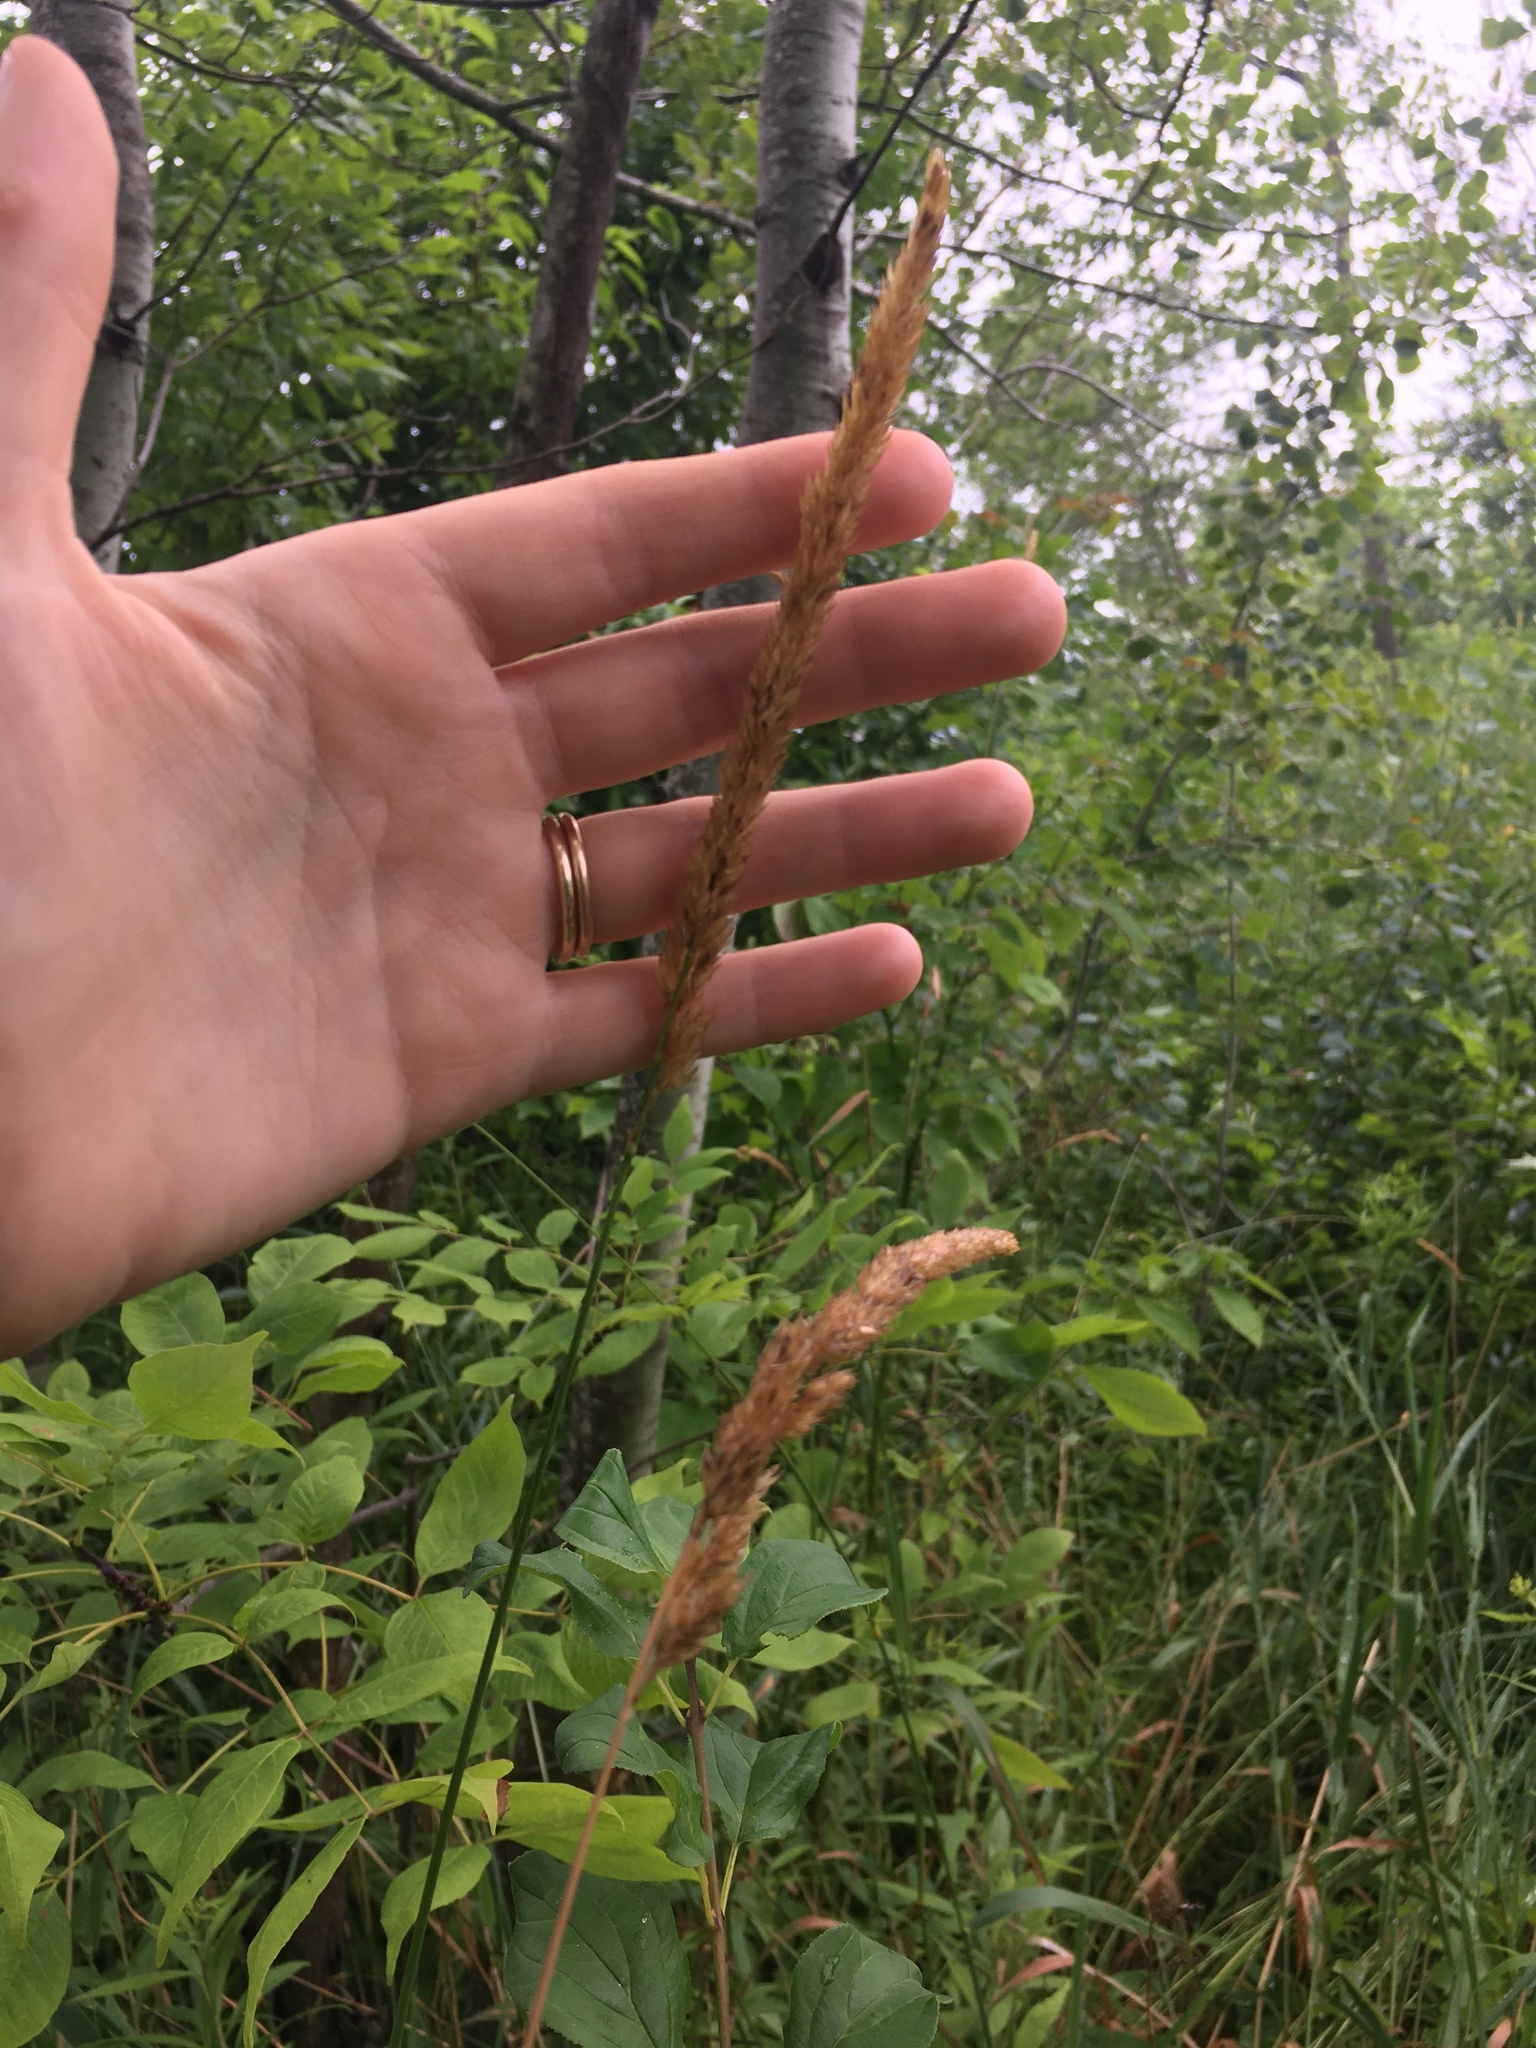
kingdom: Plantae
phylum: Tracheophyta
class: Liliopsida
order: Poales
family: Poaceae
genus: Phalaris
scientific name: Phalaris arundinacea
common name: Reed canary-grass
